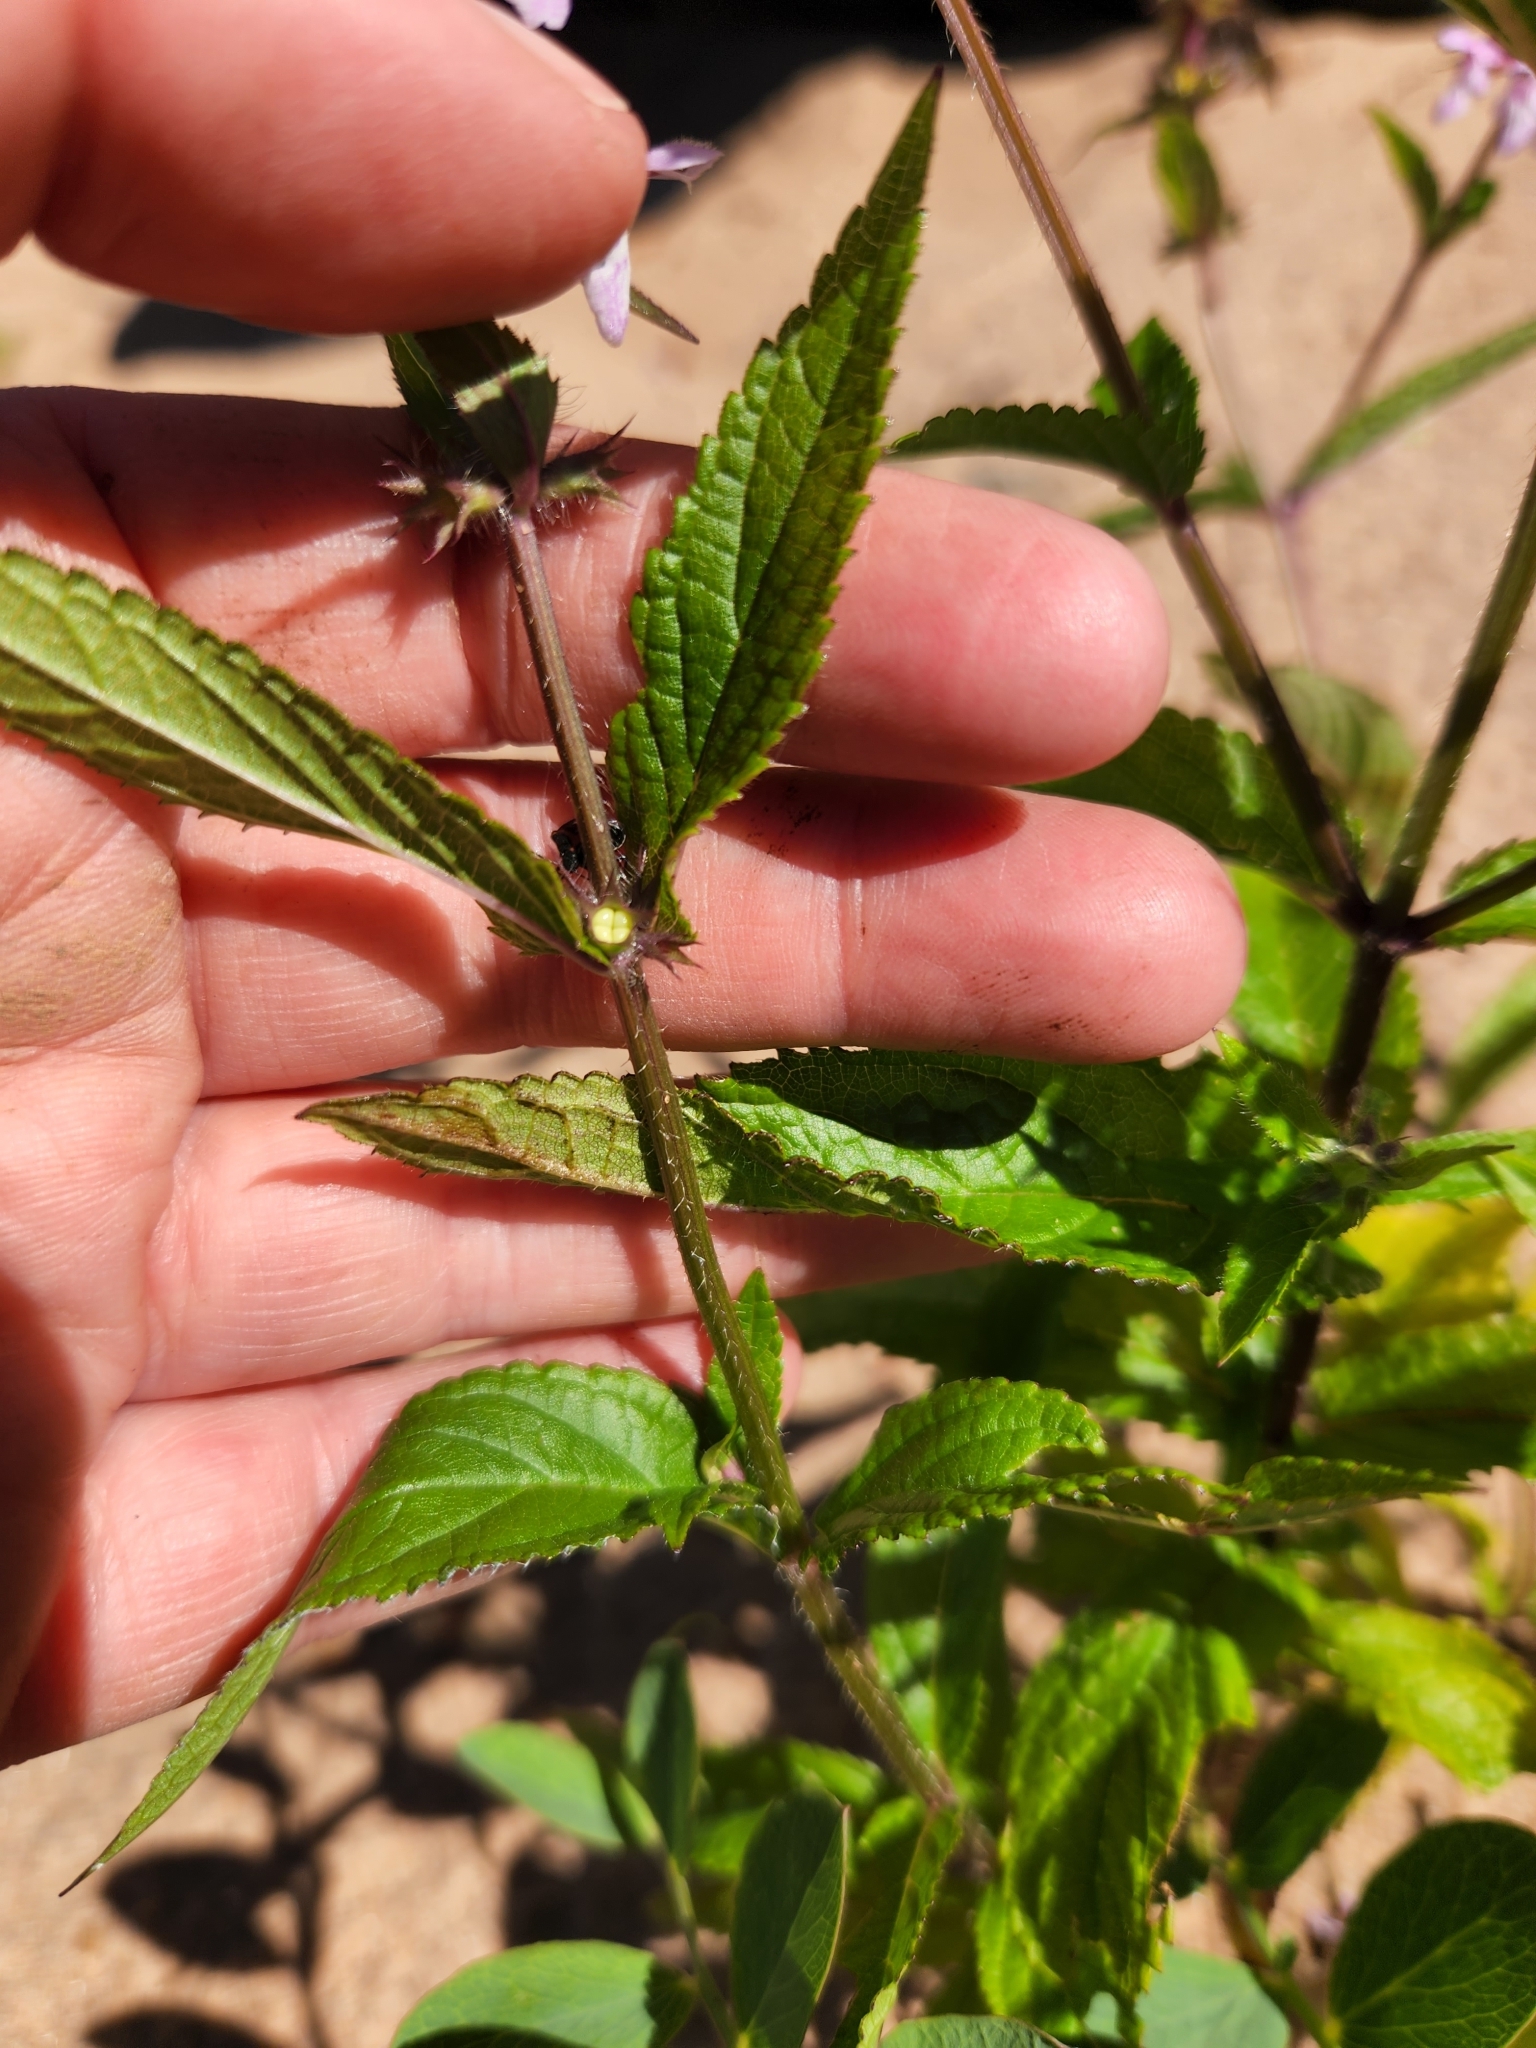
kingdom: Plantae
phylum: Tracheophyta
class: Magnoliopsida
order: Lamiales
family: Lamiaceae
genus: Stachys
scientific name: Stachys hispida
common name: Hispid hedge-nettle
